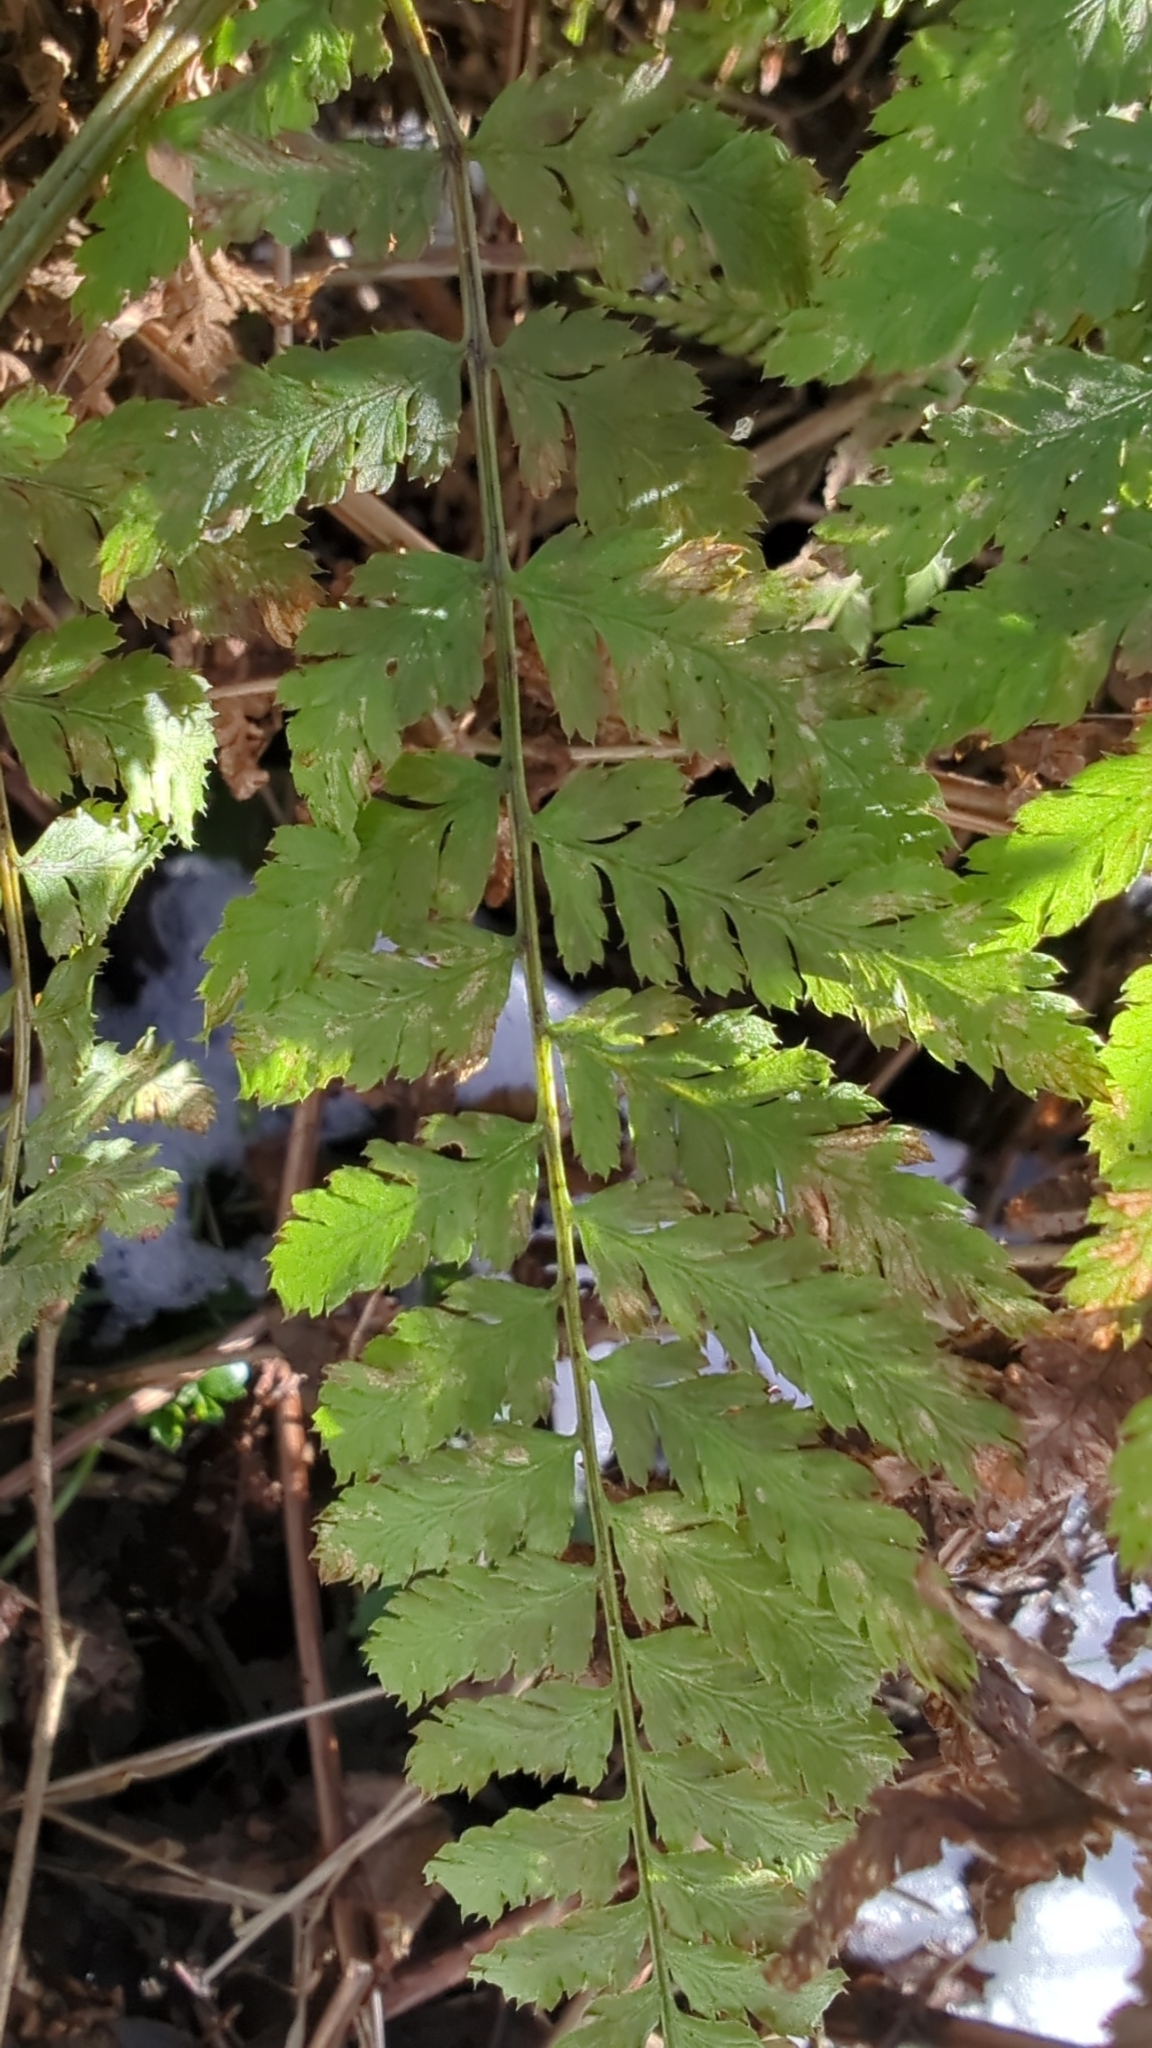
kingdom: Plantae
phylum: Tracheophyta
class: Polypodiopsida
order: Polypodiales
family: Dryopteridaceae
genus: Dryopteris
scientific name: Dryopteris expansa
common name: Northern buckler fern
